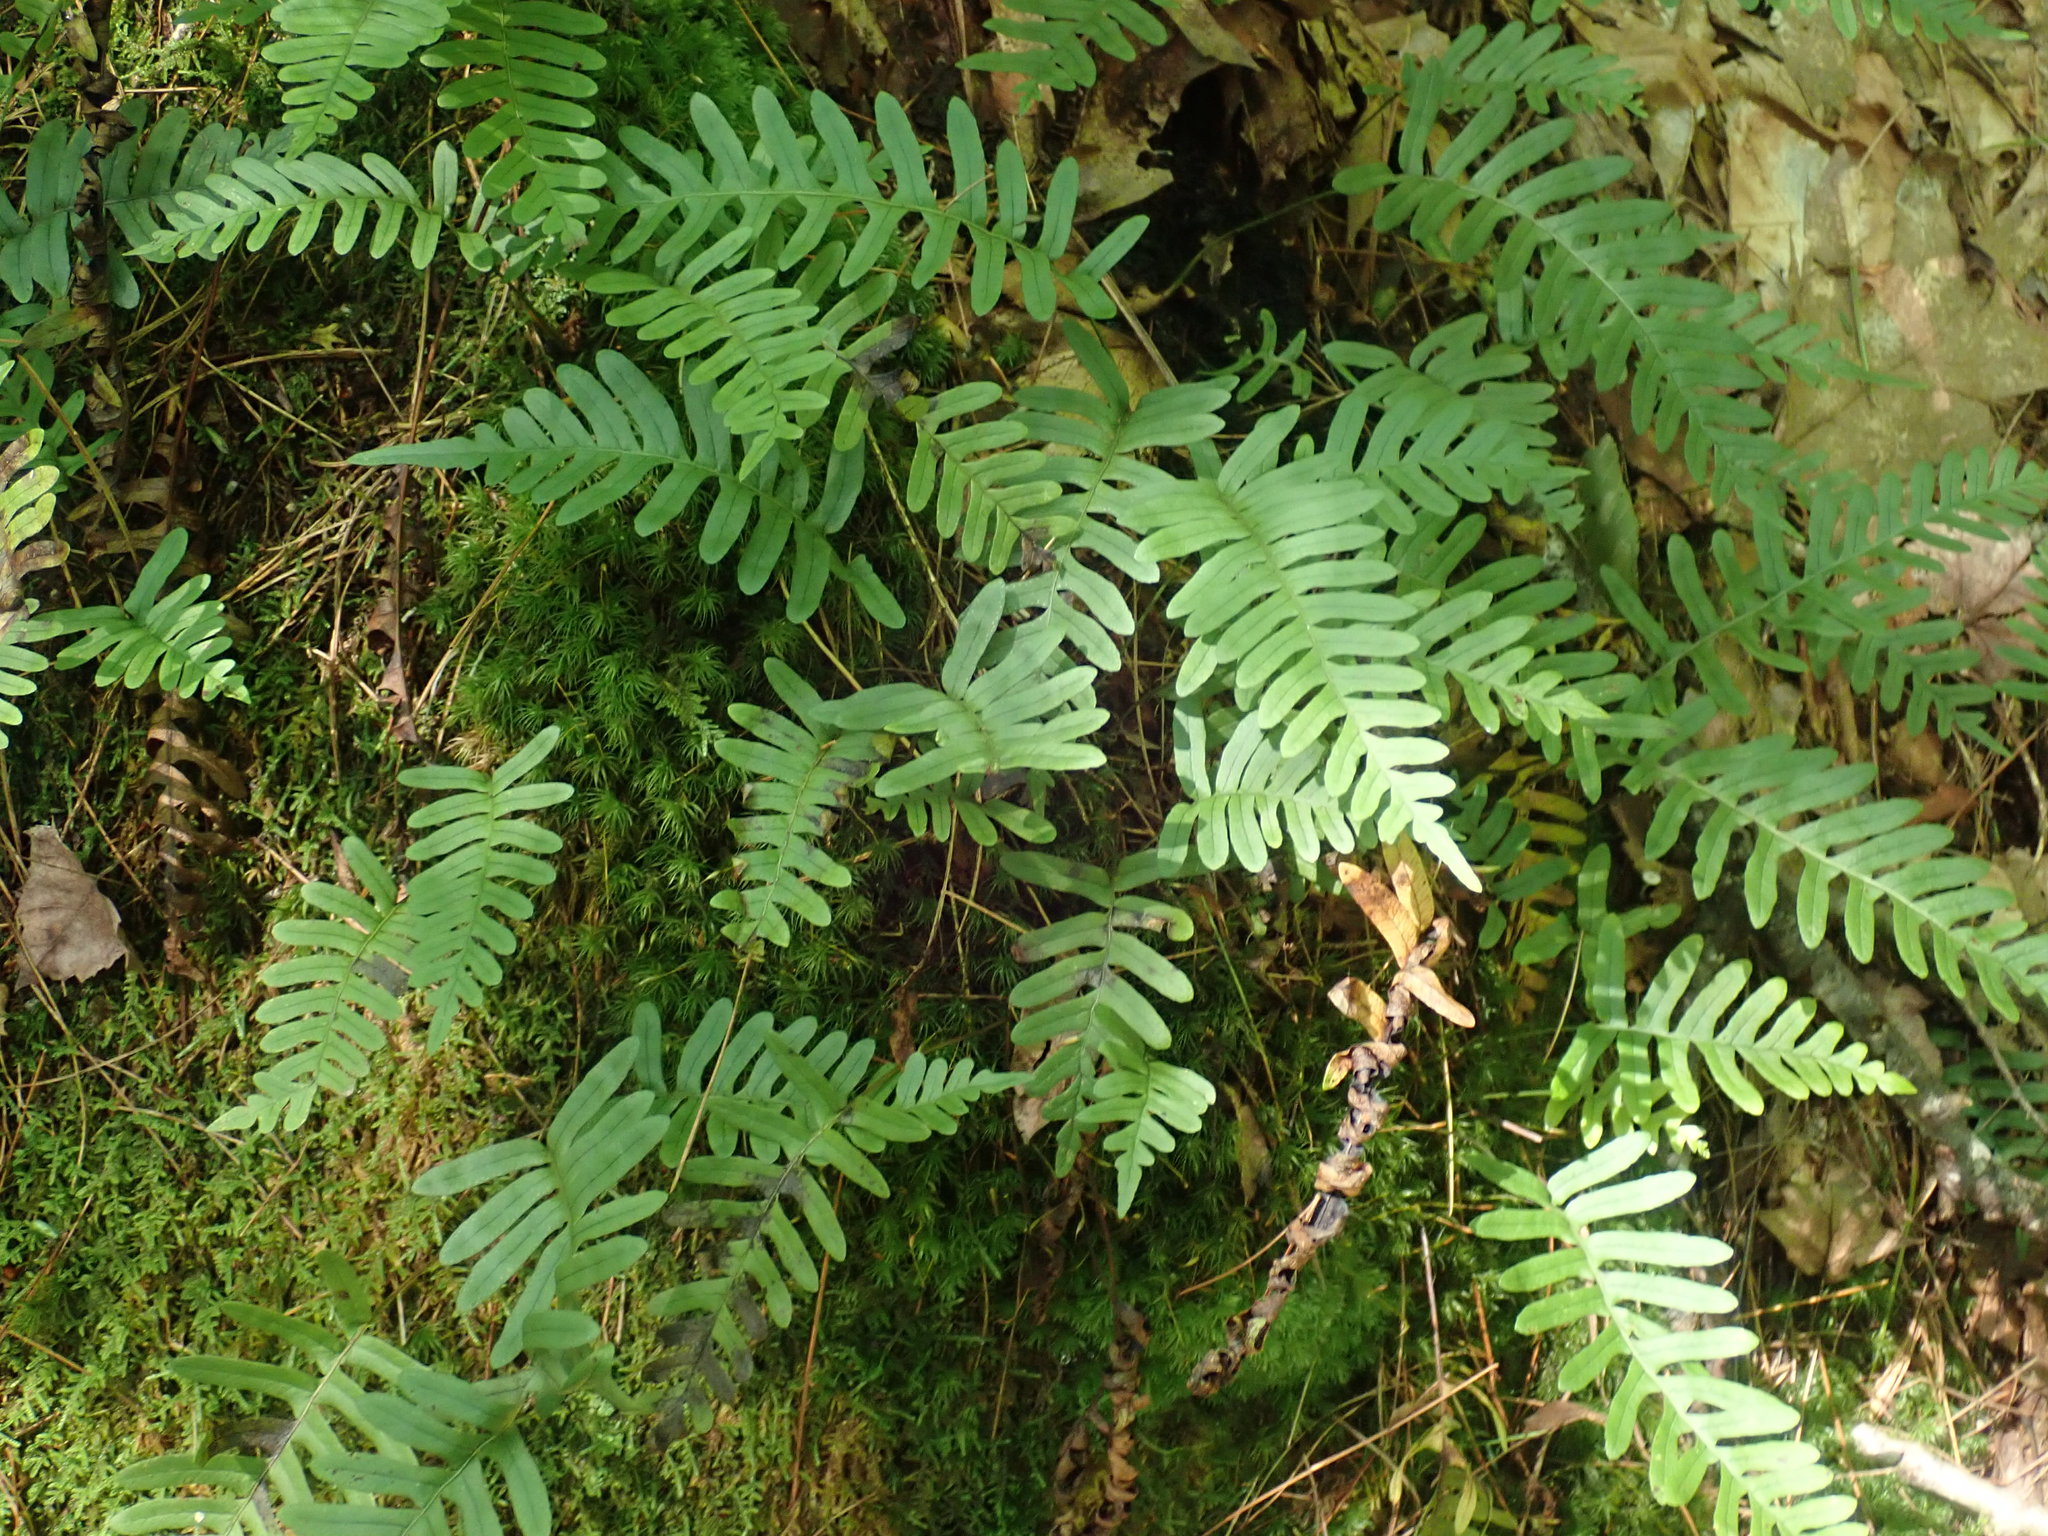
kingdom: Plantae
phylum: Tracheophyta
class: Polypodiopsida
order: Polypodiales
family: Polypodiaceae
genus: Polypodium
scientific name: Polypodium
